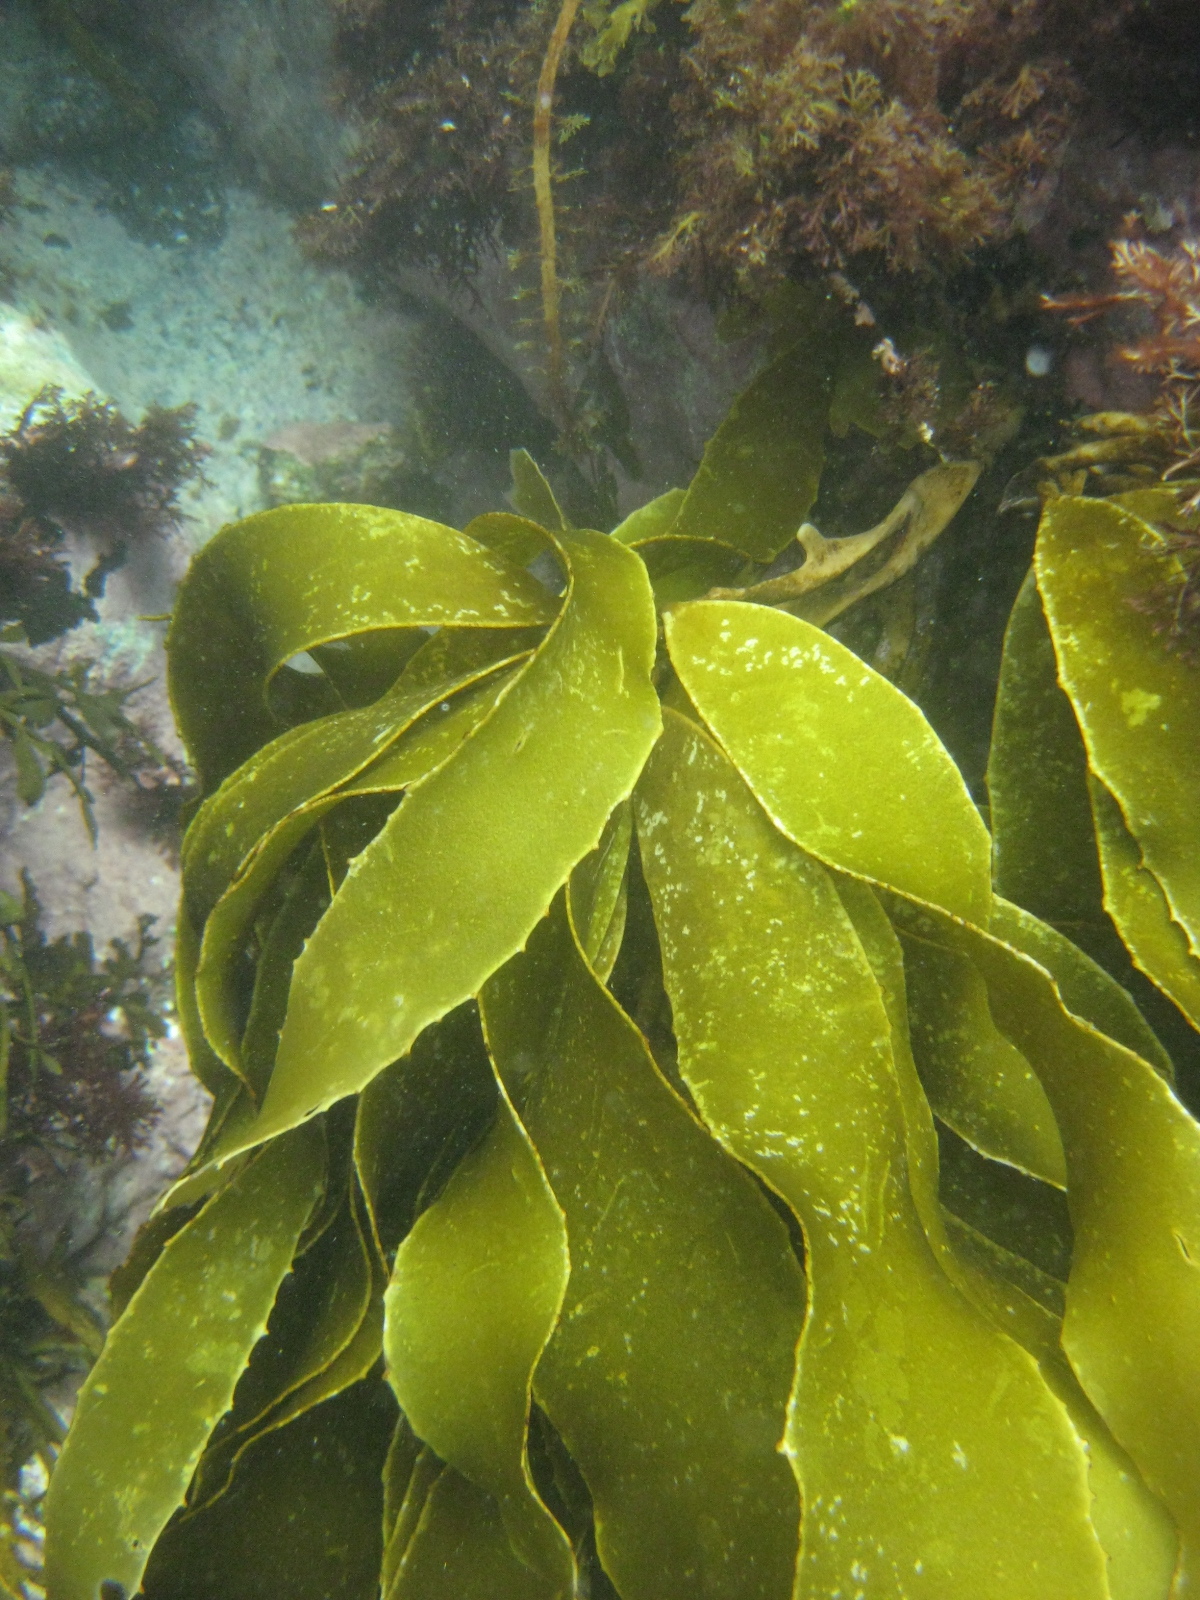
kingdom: Chromista
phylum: Ochrophyta
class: Phaeophyceae
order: Laminariales
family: Lessoniaceae
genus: Lessonia
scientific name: Lessonia
